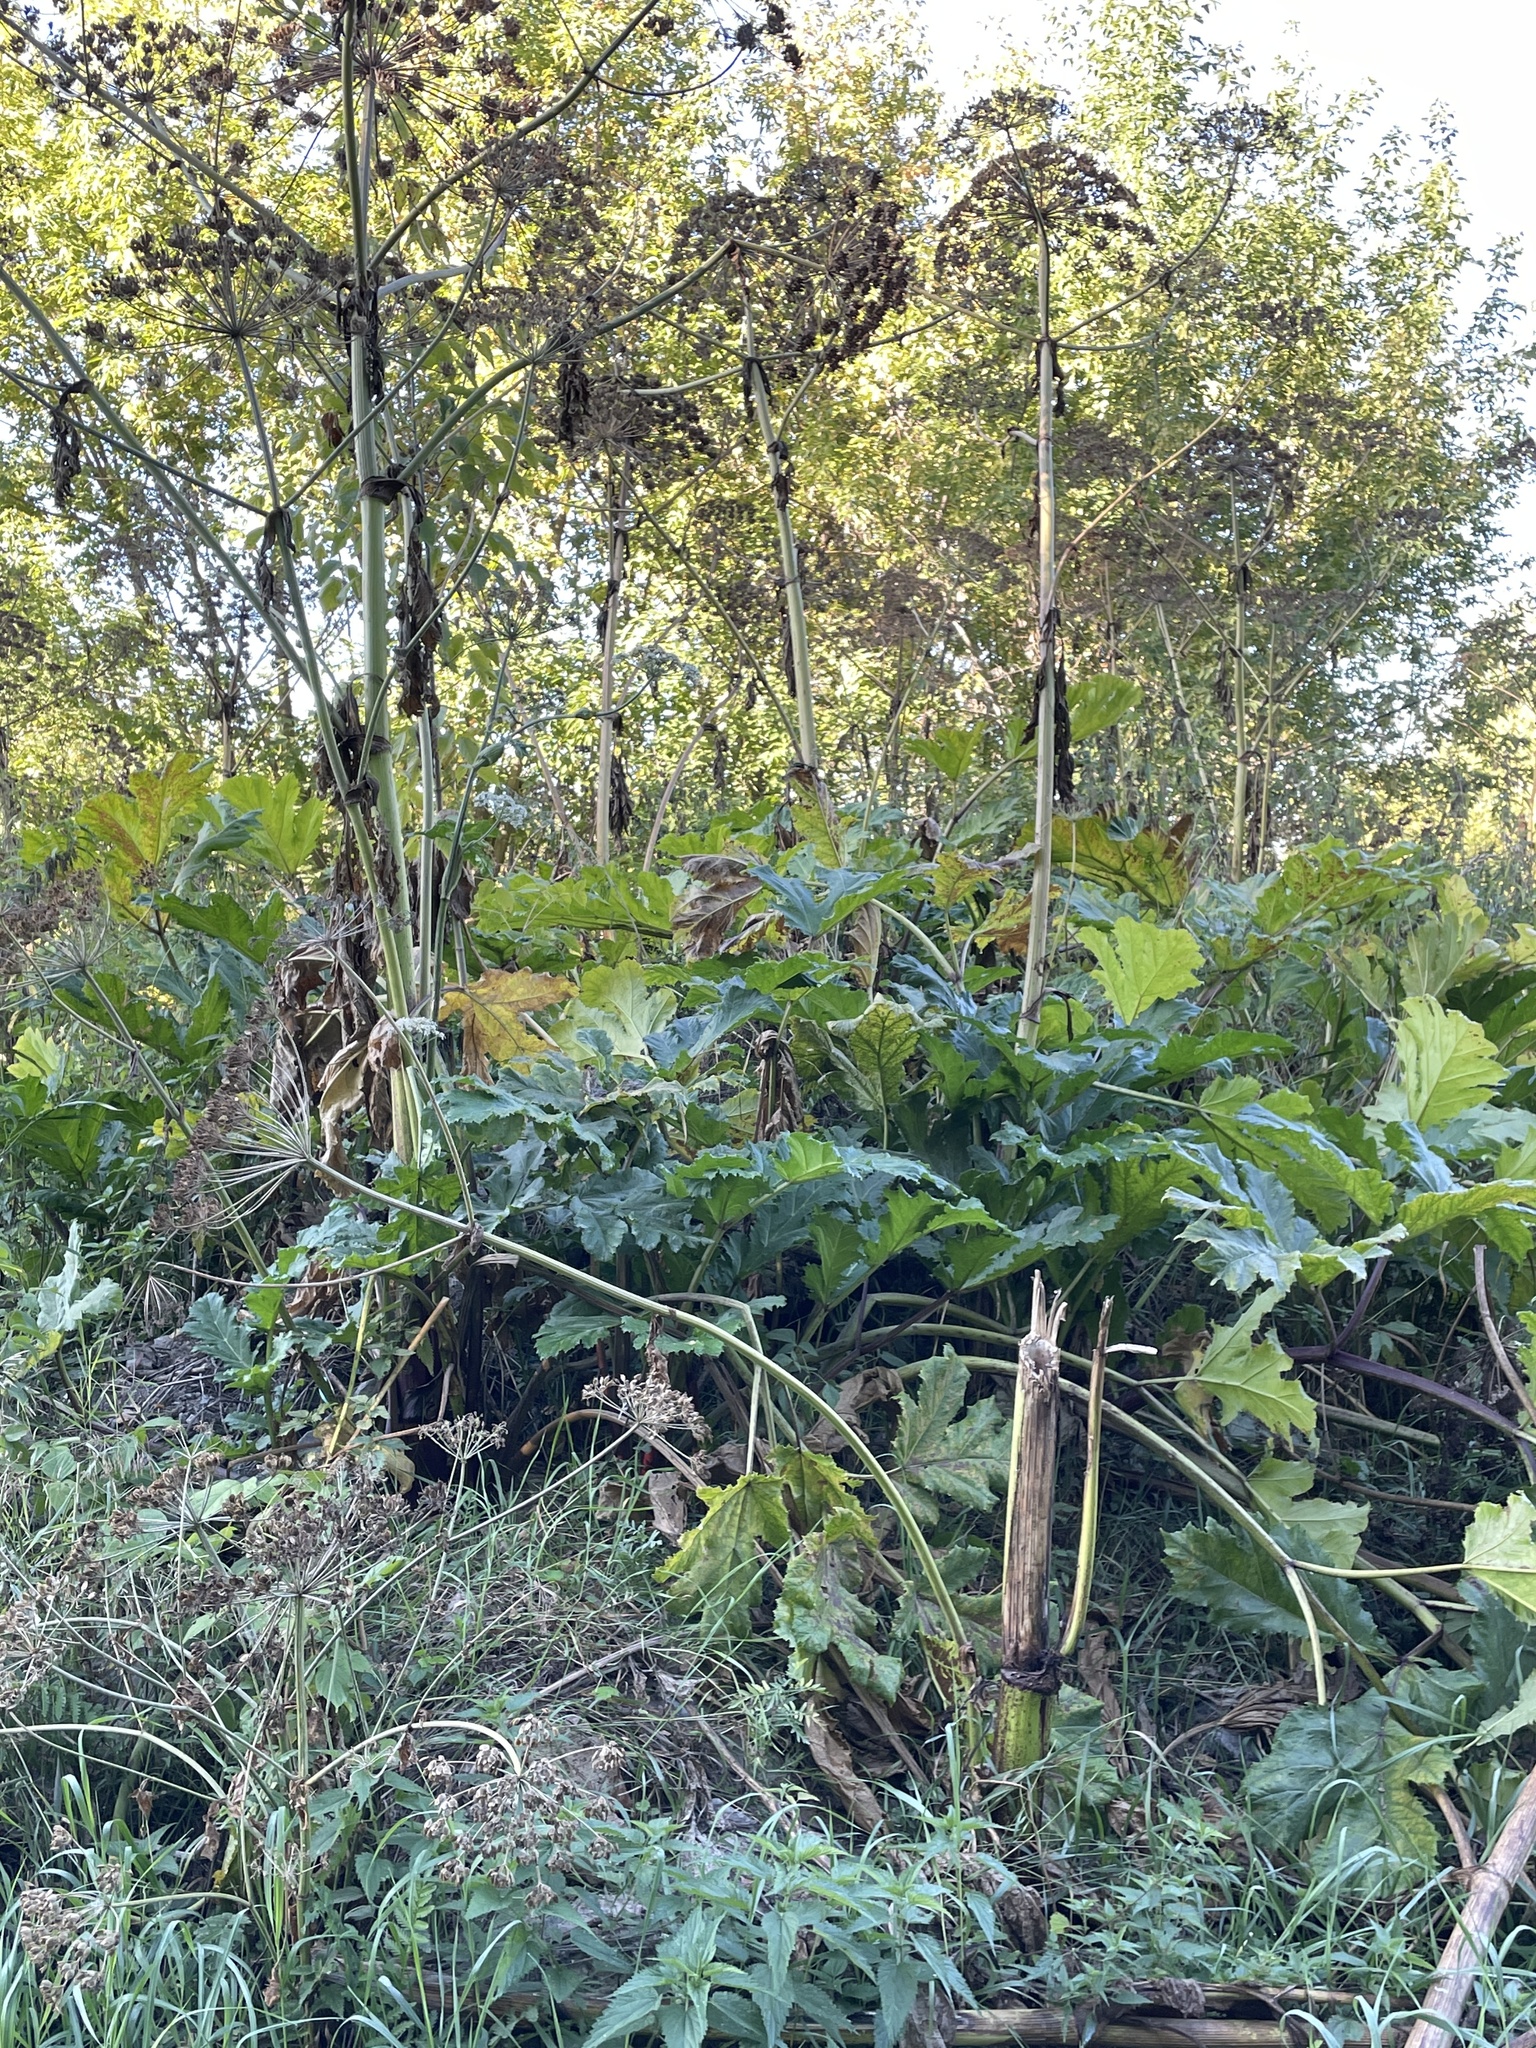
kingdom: Plantae
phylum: Tracheophyta
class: Magnoliopsida
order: Apiales
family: Apiaceae
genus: Heracleum
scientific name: Heracleum sosnowskyi
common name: Sosnowsky's hogweed
